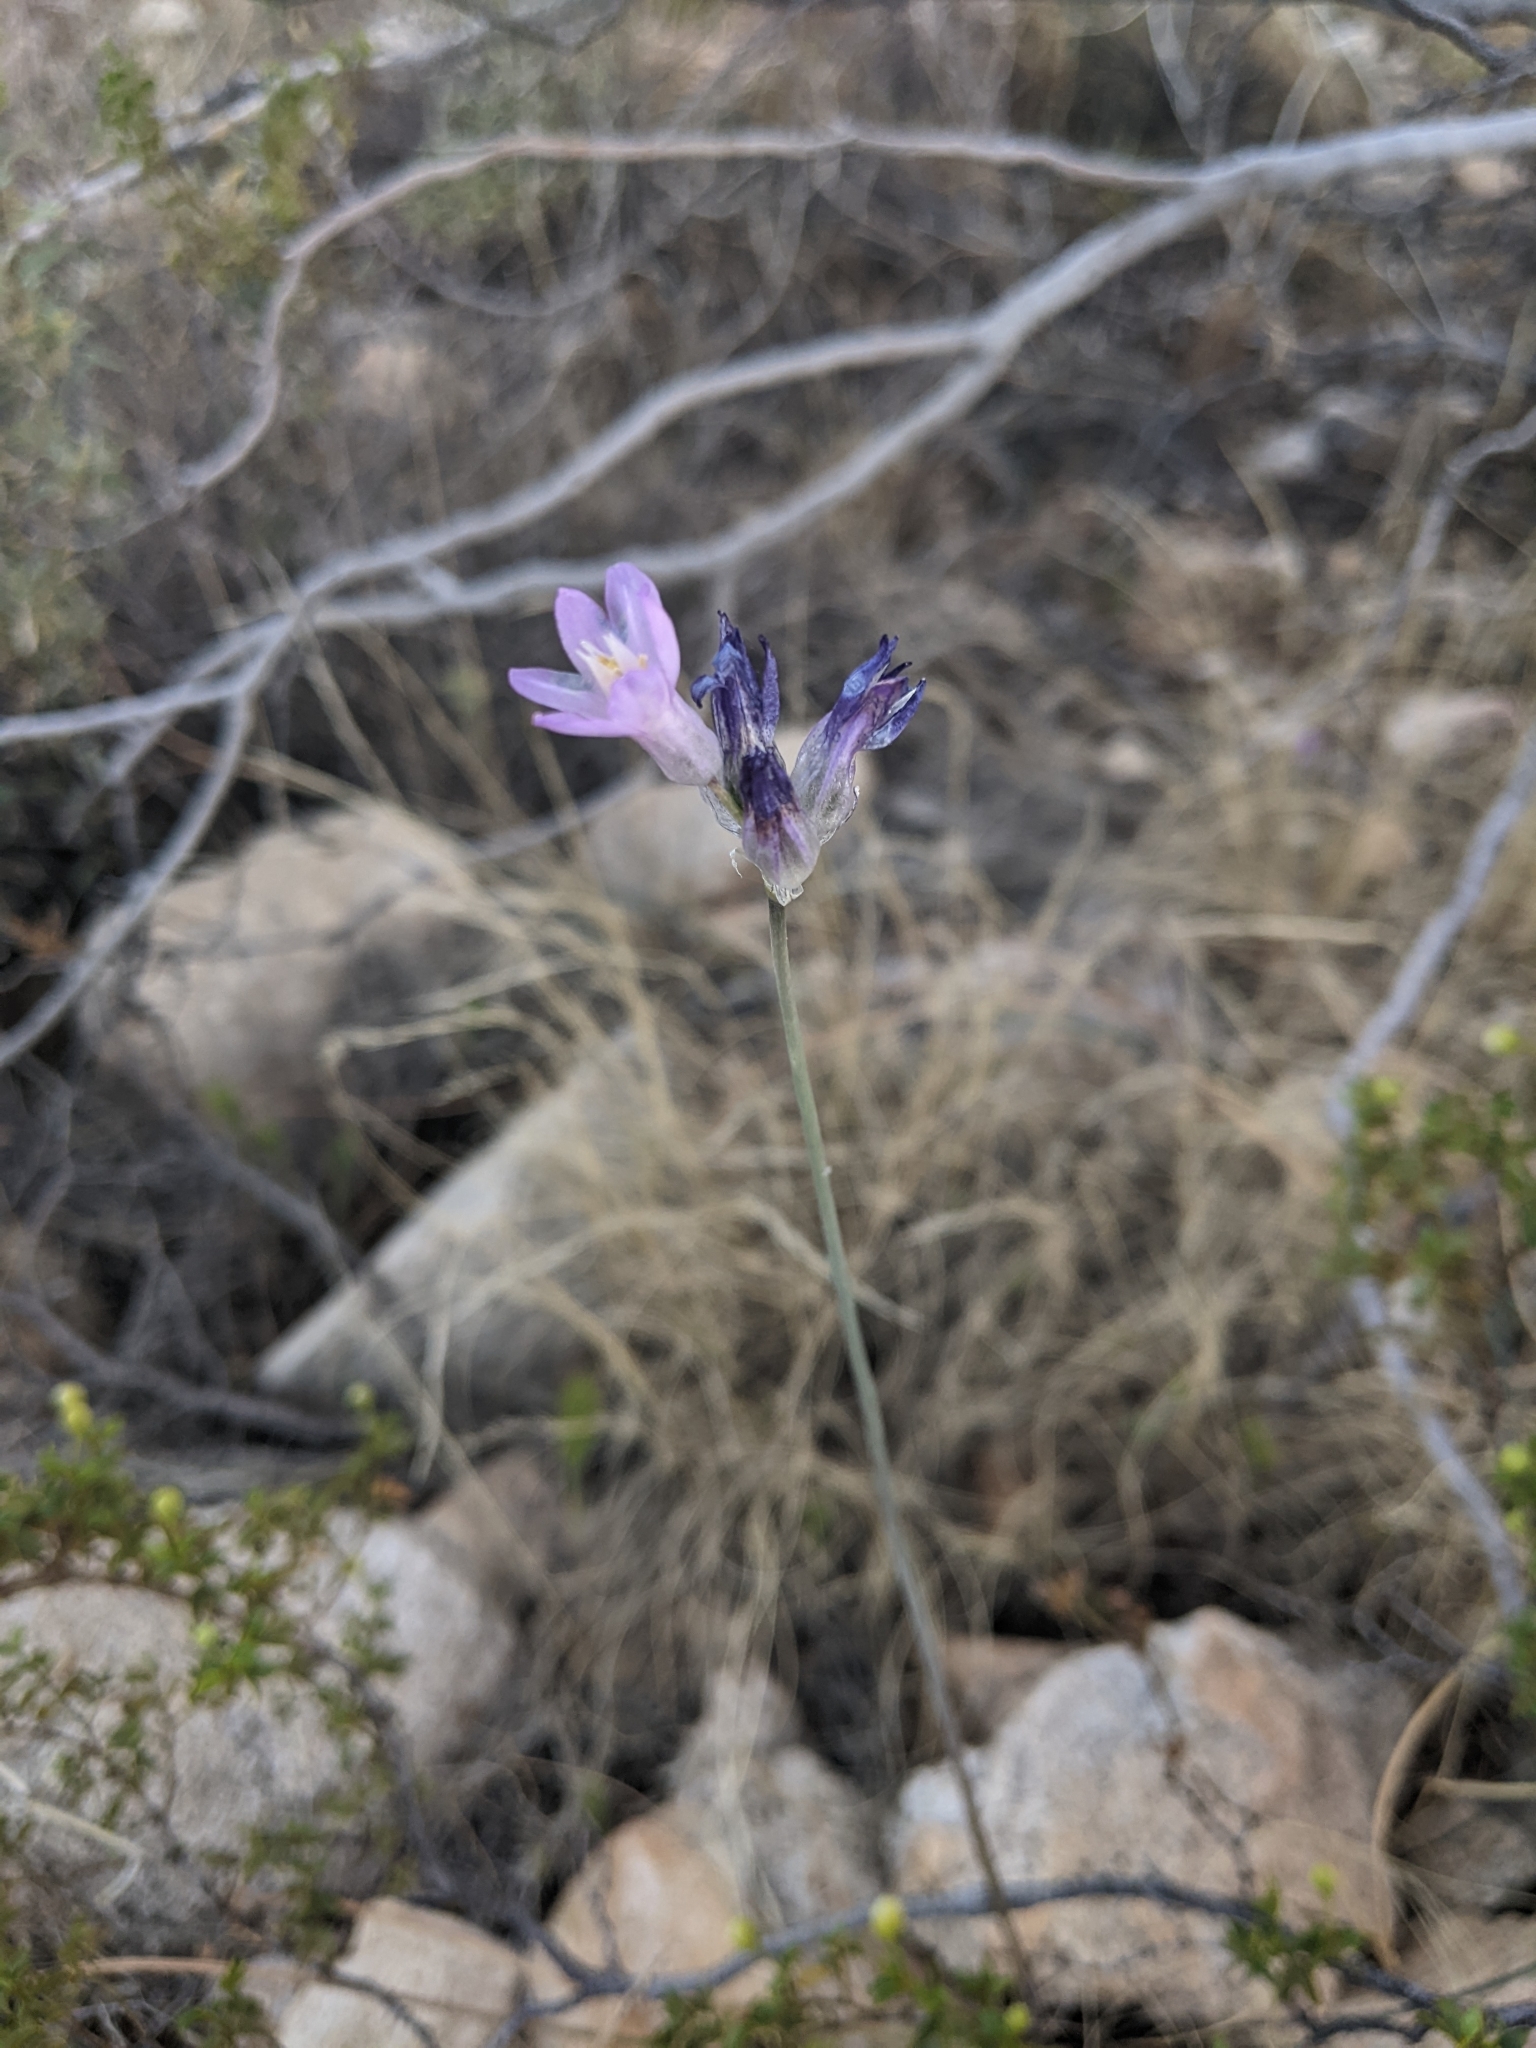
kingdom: Plantae
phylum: Tracheophyta
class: Liliopsida
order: Asparagales
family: Asparagaceae
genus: Dipterostemon
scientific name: Dipterostemon capitatus
